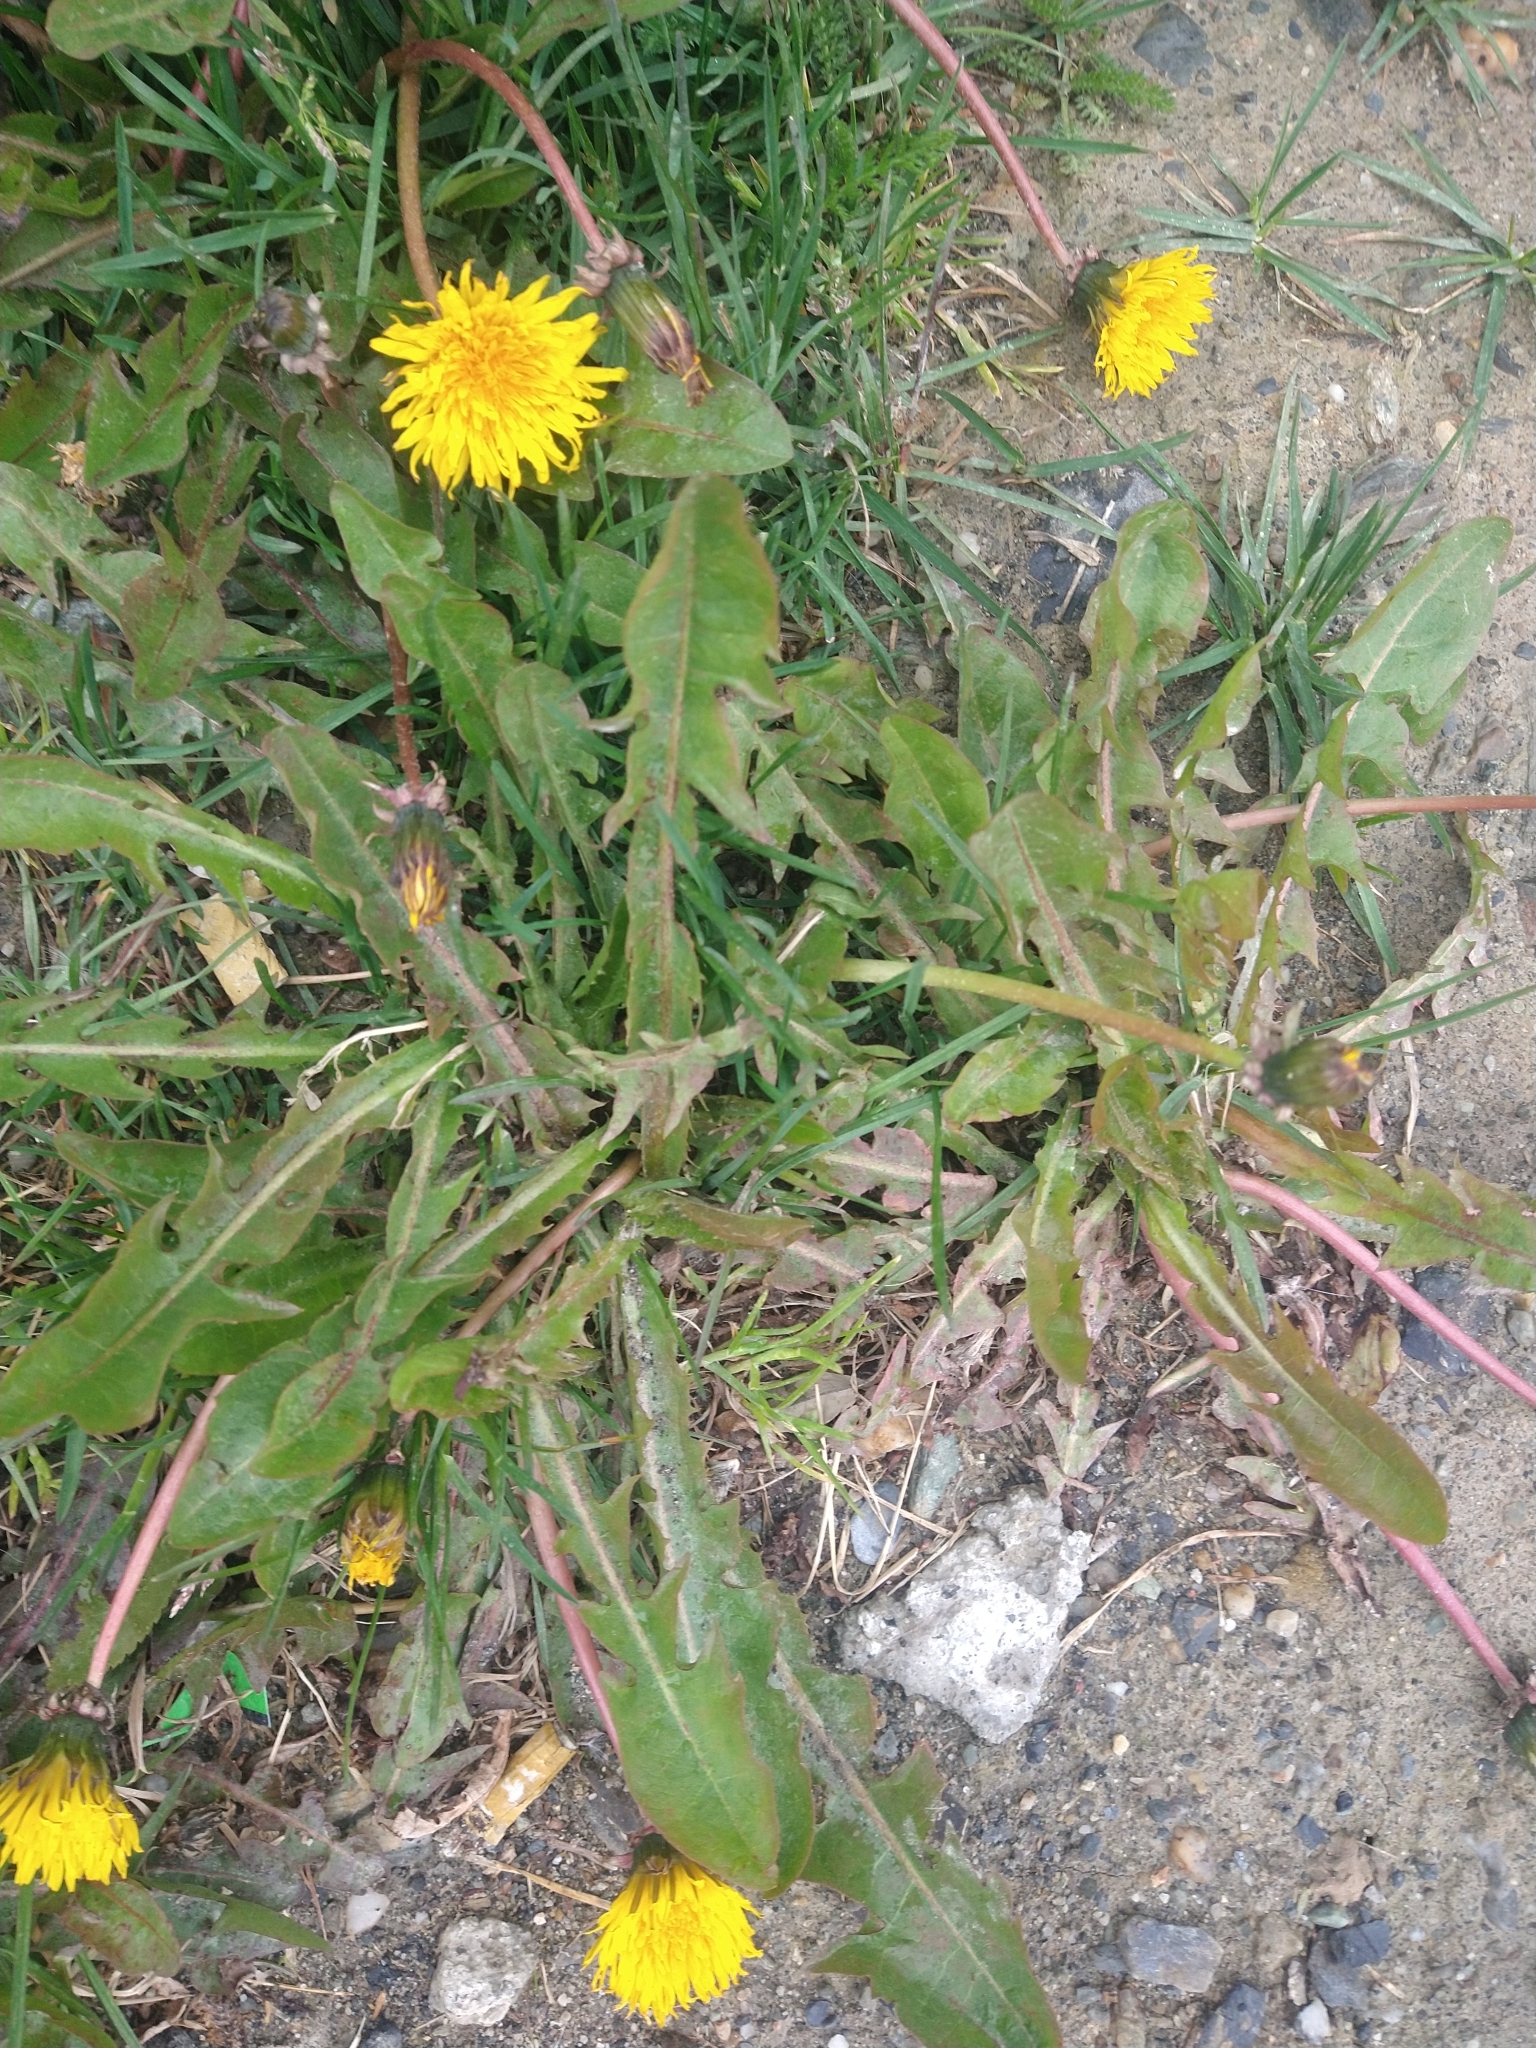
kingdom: Plantae
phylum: Tracheophyta
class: Magnoliopsida
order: Asterales
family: Asteraceae
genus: Taraxacum
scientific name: Taraxacum officinale
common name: Common dandelion
